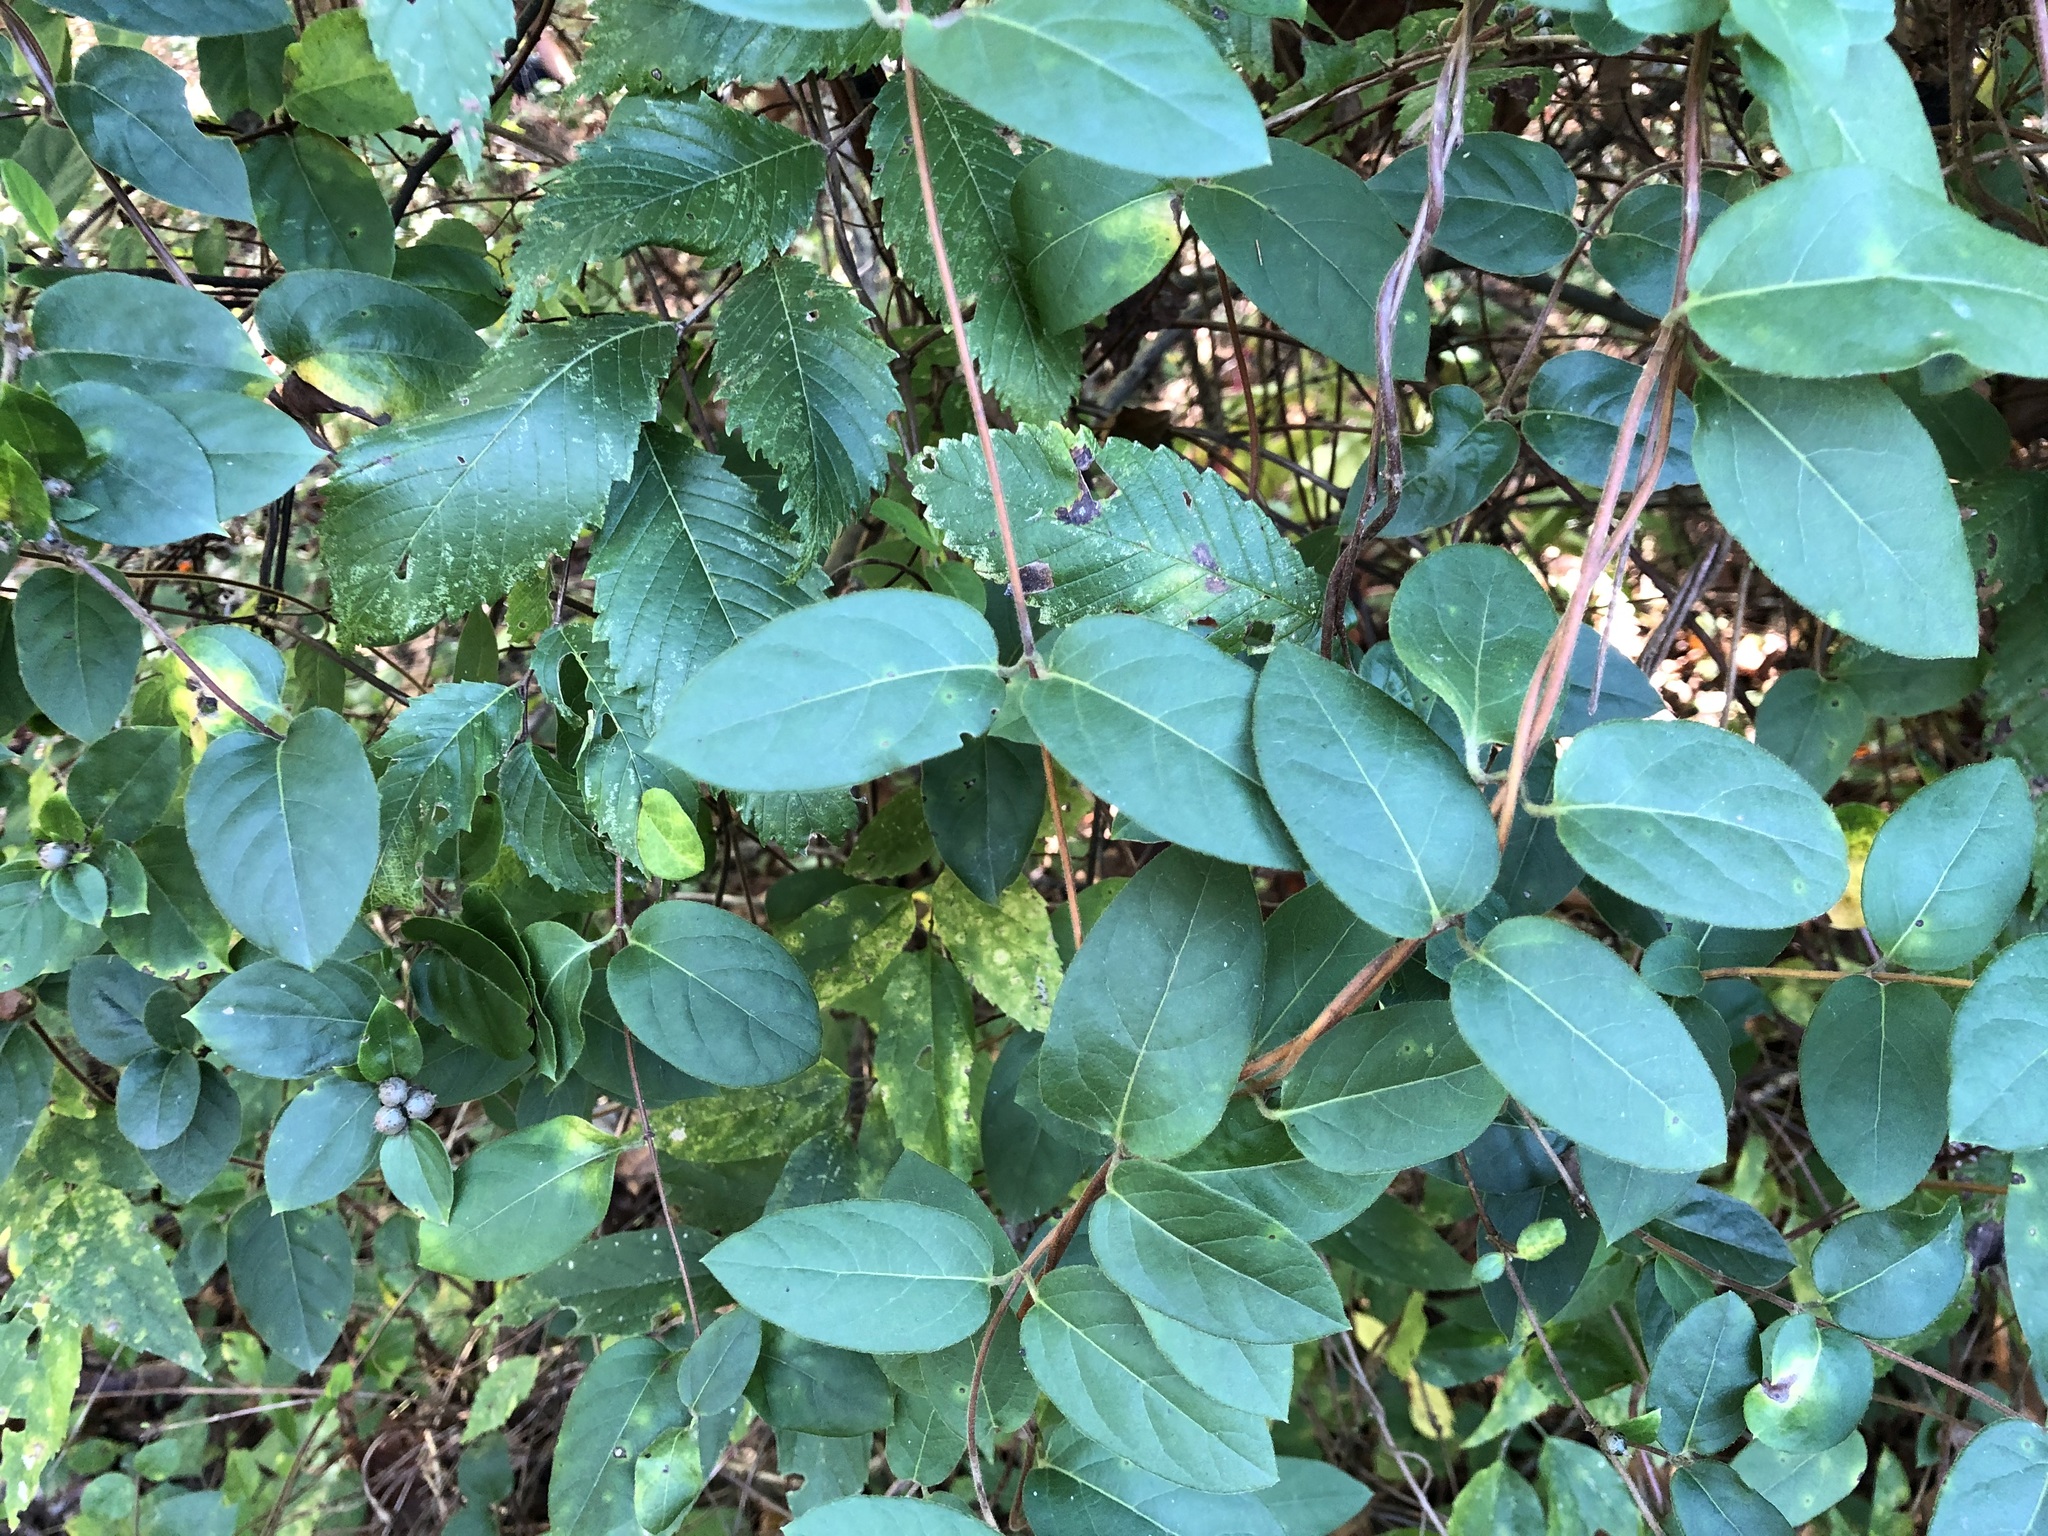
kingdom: Plantae
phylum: Tracheophyta
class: Magnoliopsida
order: Dipsacales
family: Caprifoliaceae
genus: Lonicera
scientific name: Lonicera japonica
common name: Japanese honeysuckle
